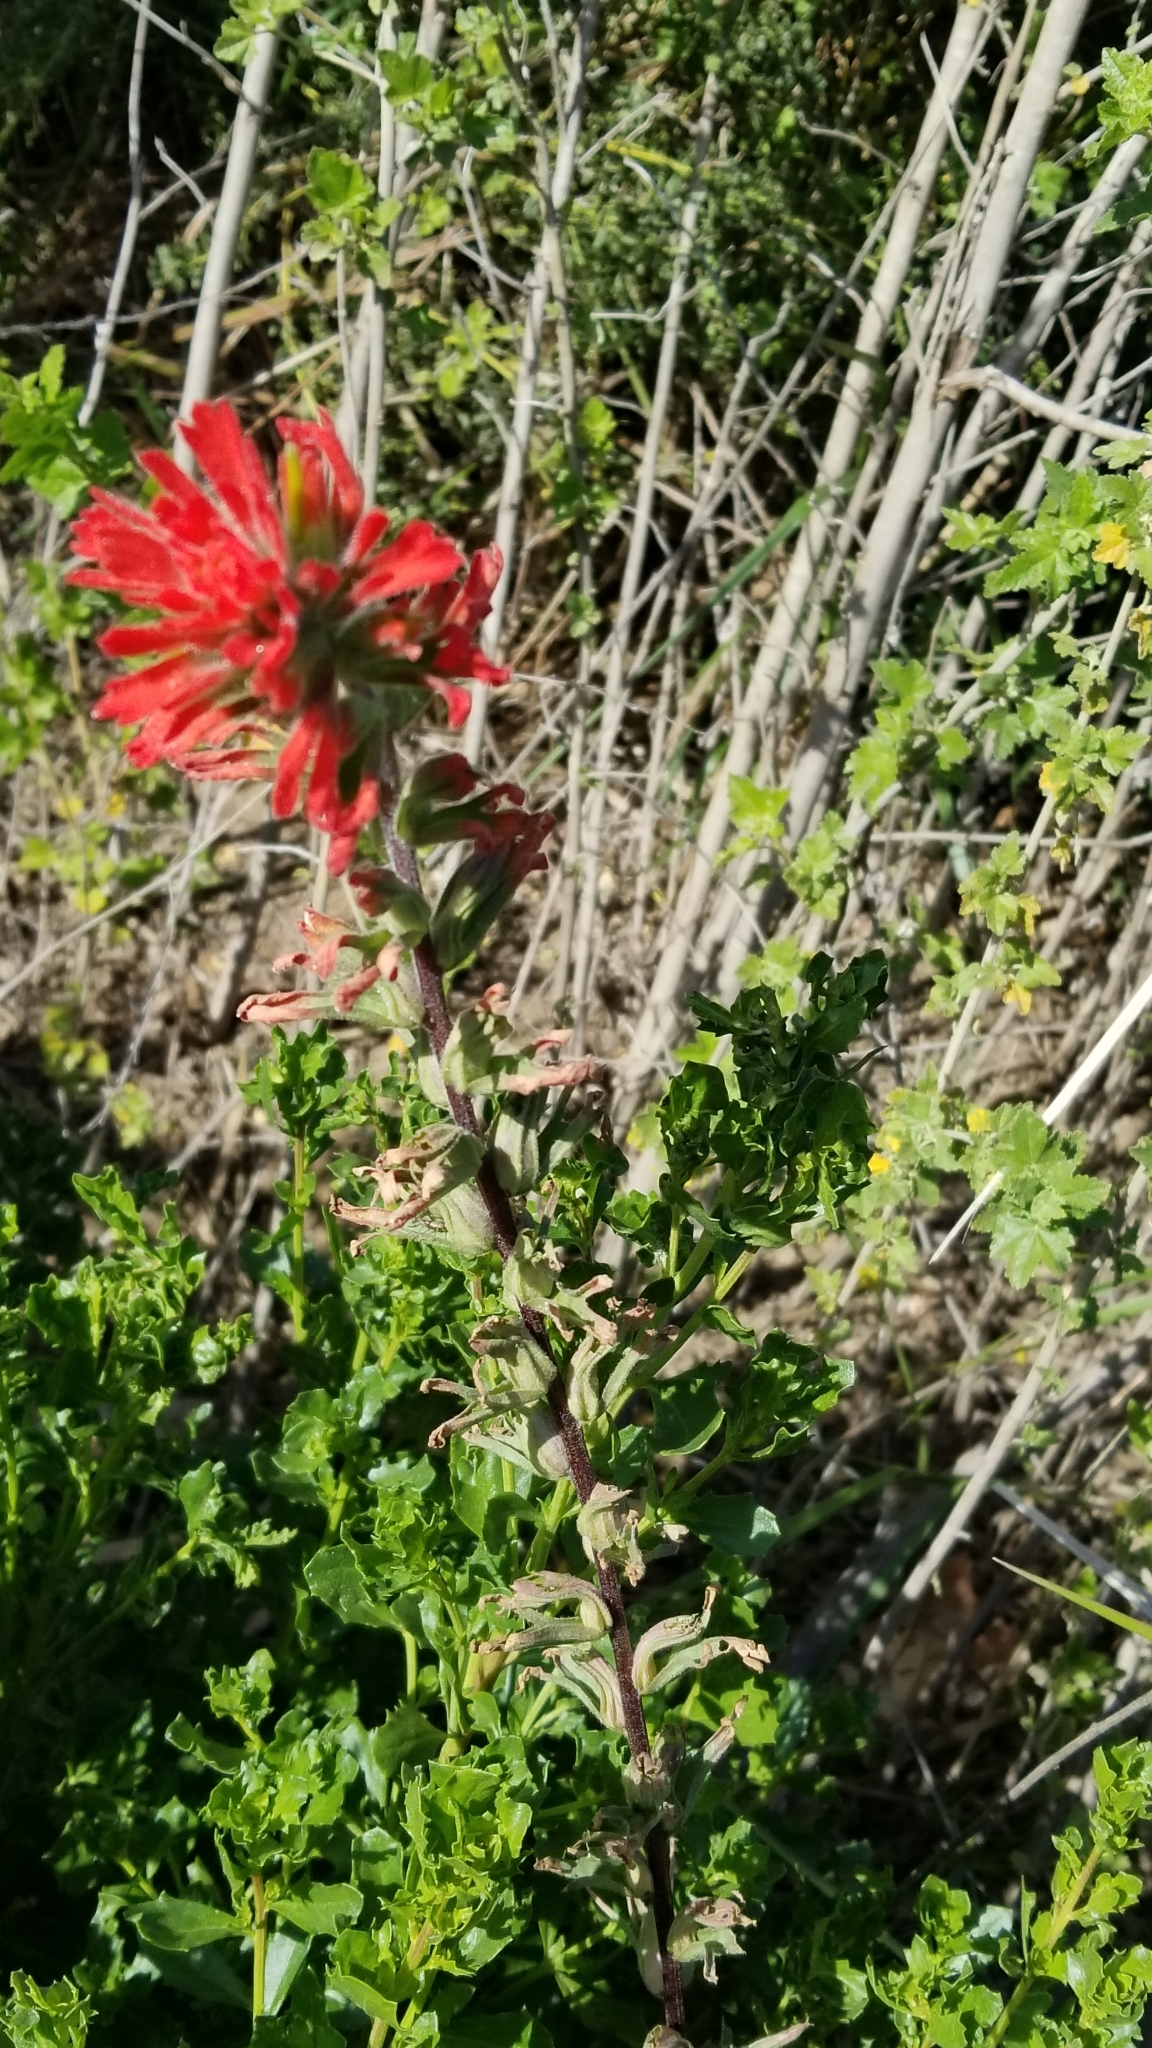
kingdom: Plantae
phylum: Tracheophyta
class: Magnoliopsida
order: Lamiales
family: Orobanchaceae
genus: Castilleja
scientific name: Castilleja applegatei
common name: Wavy-leaf paintbrush
